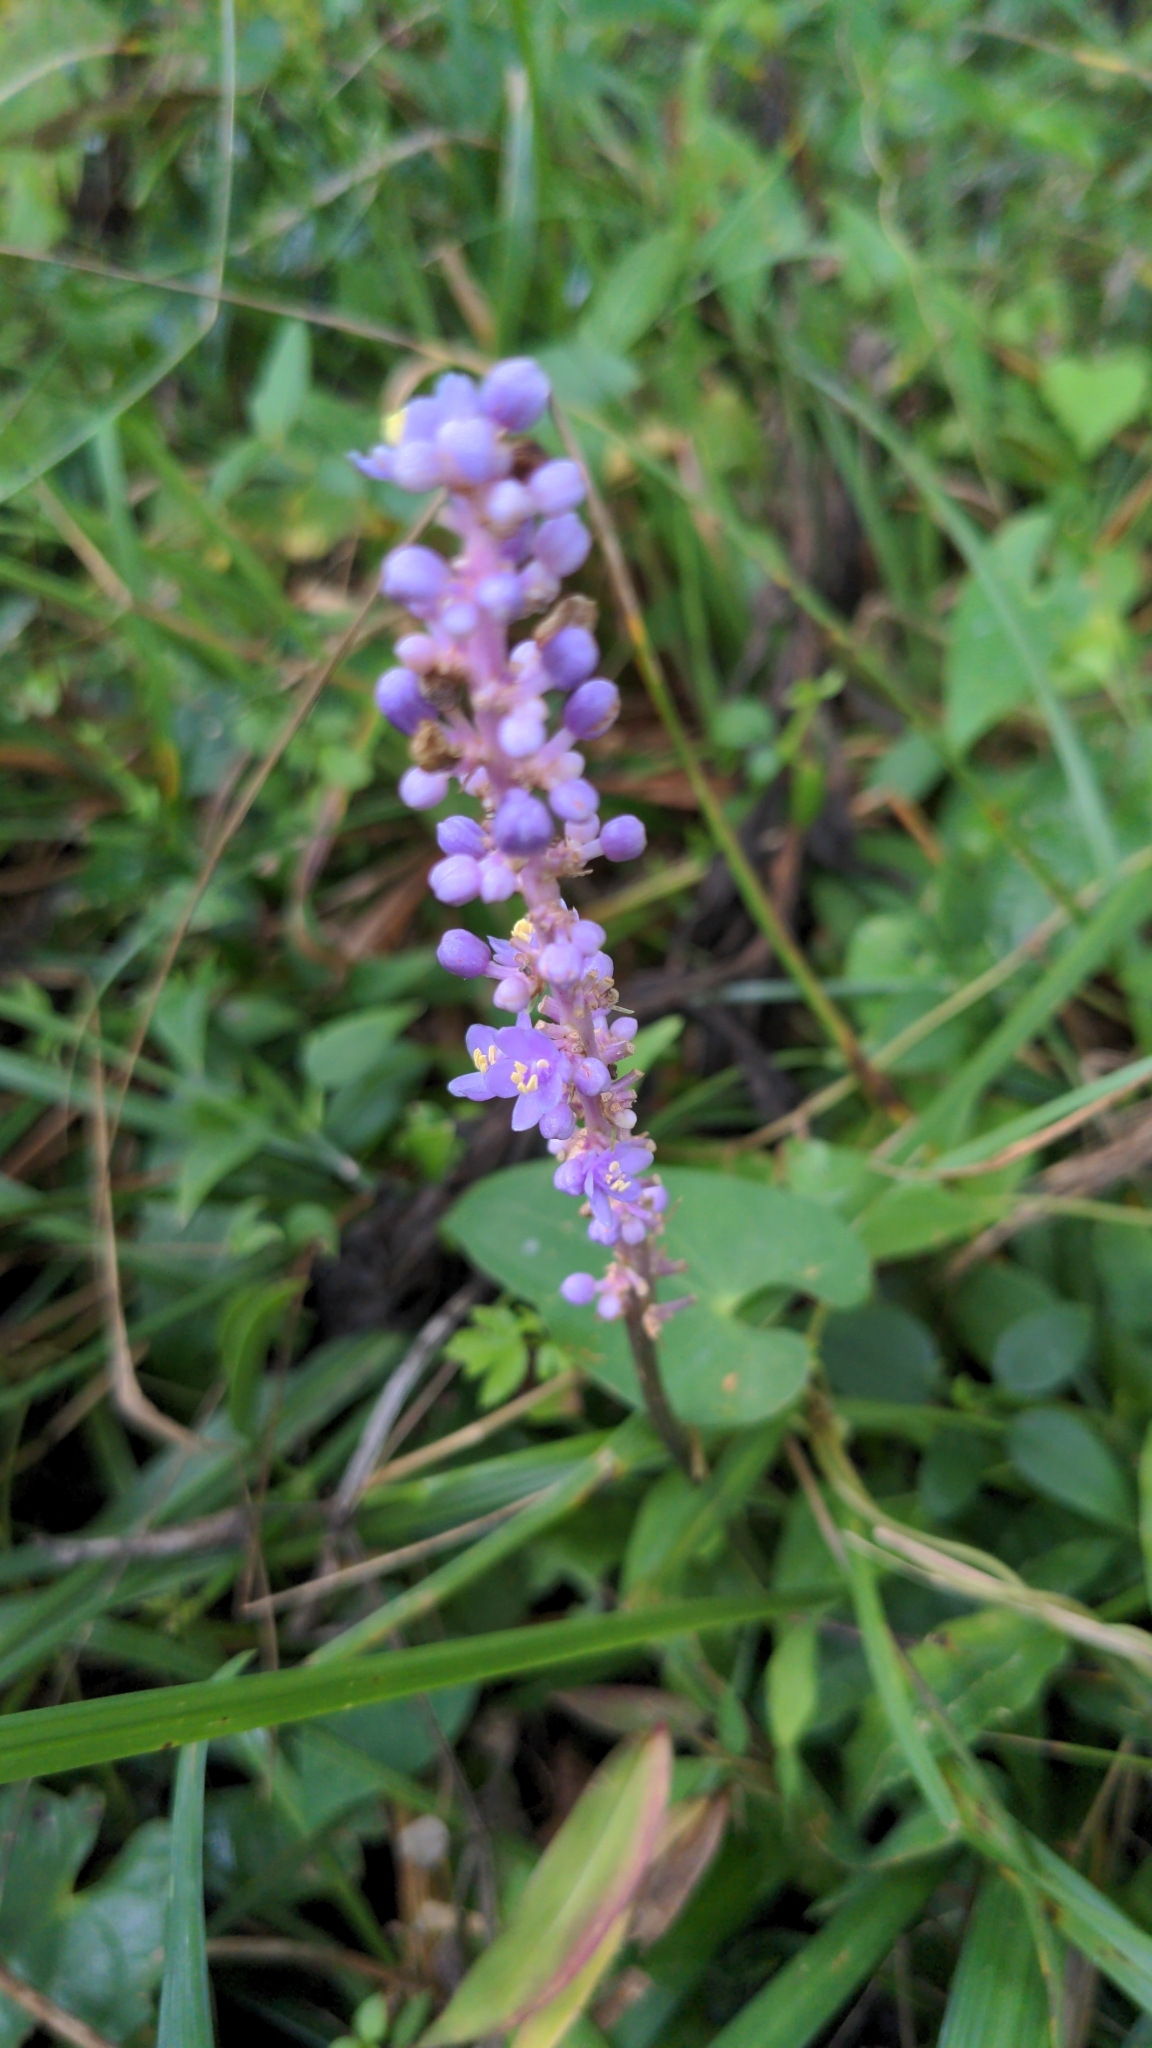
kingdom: Plantae
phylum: Tracheophyta
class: Liliopsida
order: Asparagales
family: Asparagaceae
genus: Liriope
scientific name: Liriope muscari
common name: Big blue lilyturf
